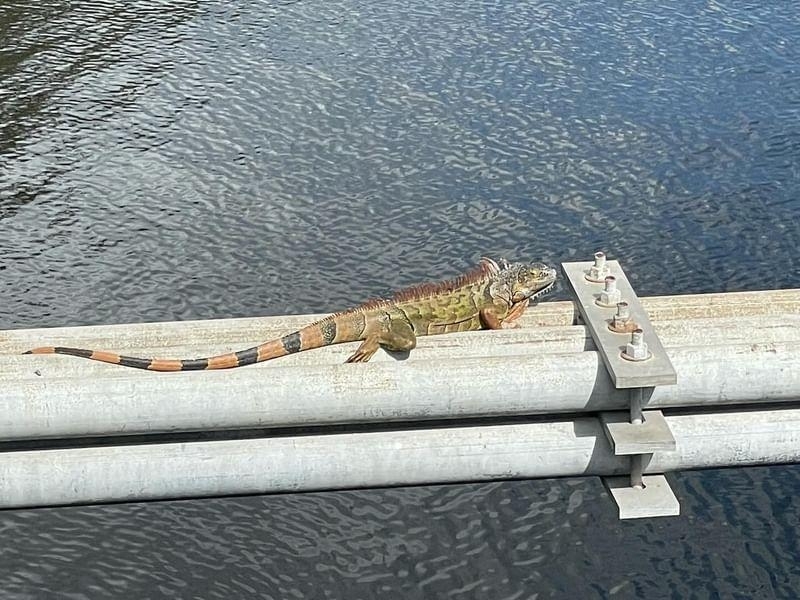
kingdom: Animalia
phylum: Chordata
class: Squamata
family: Iguanidae
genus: Iguana
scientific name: Iguana iguana
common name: Green iguana
